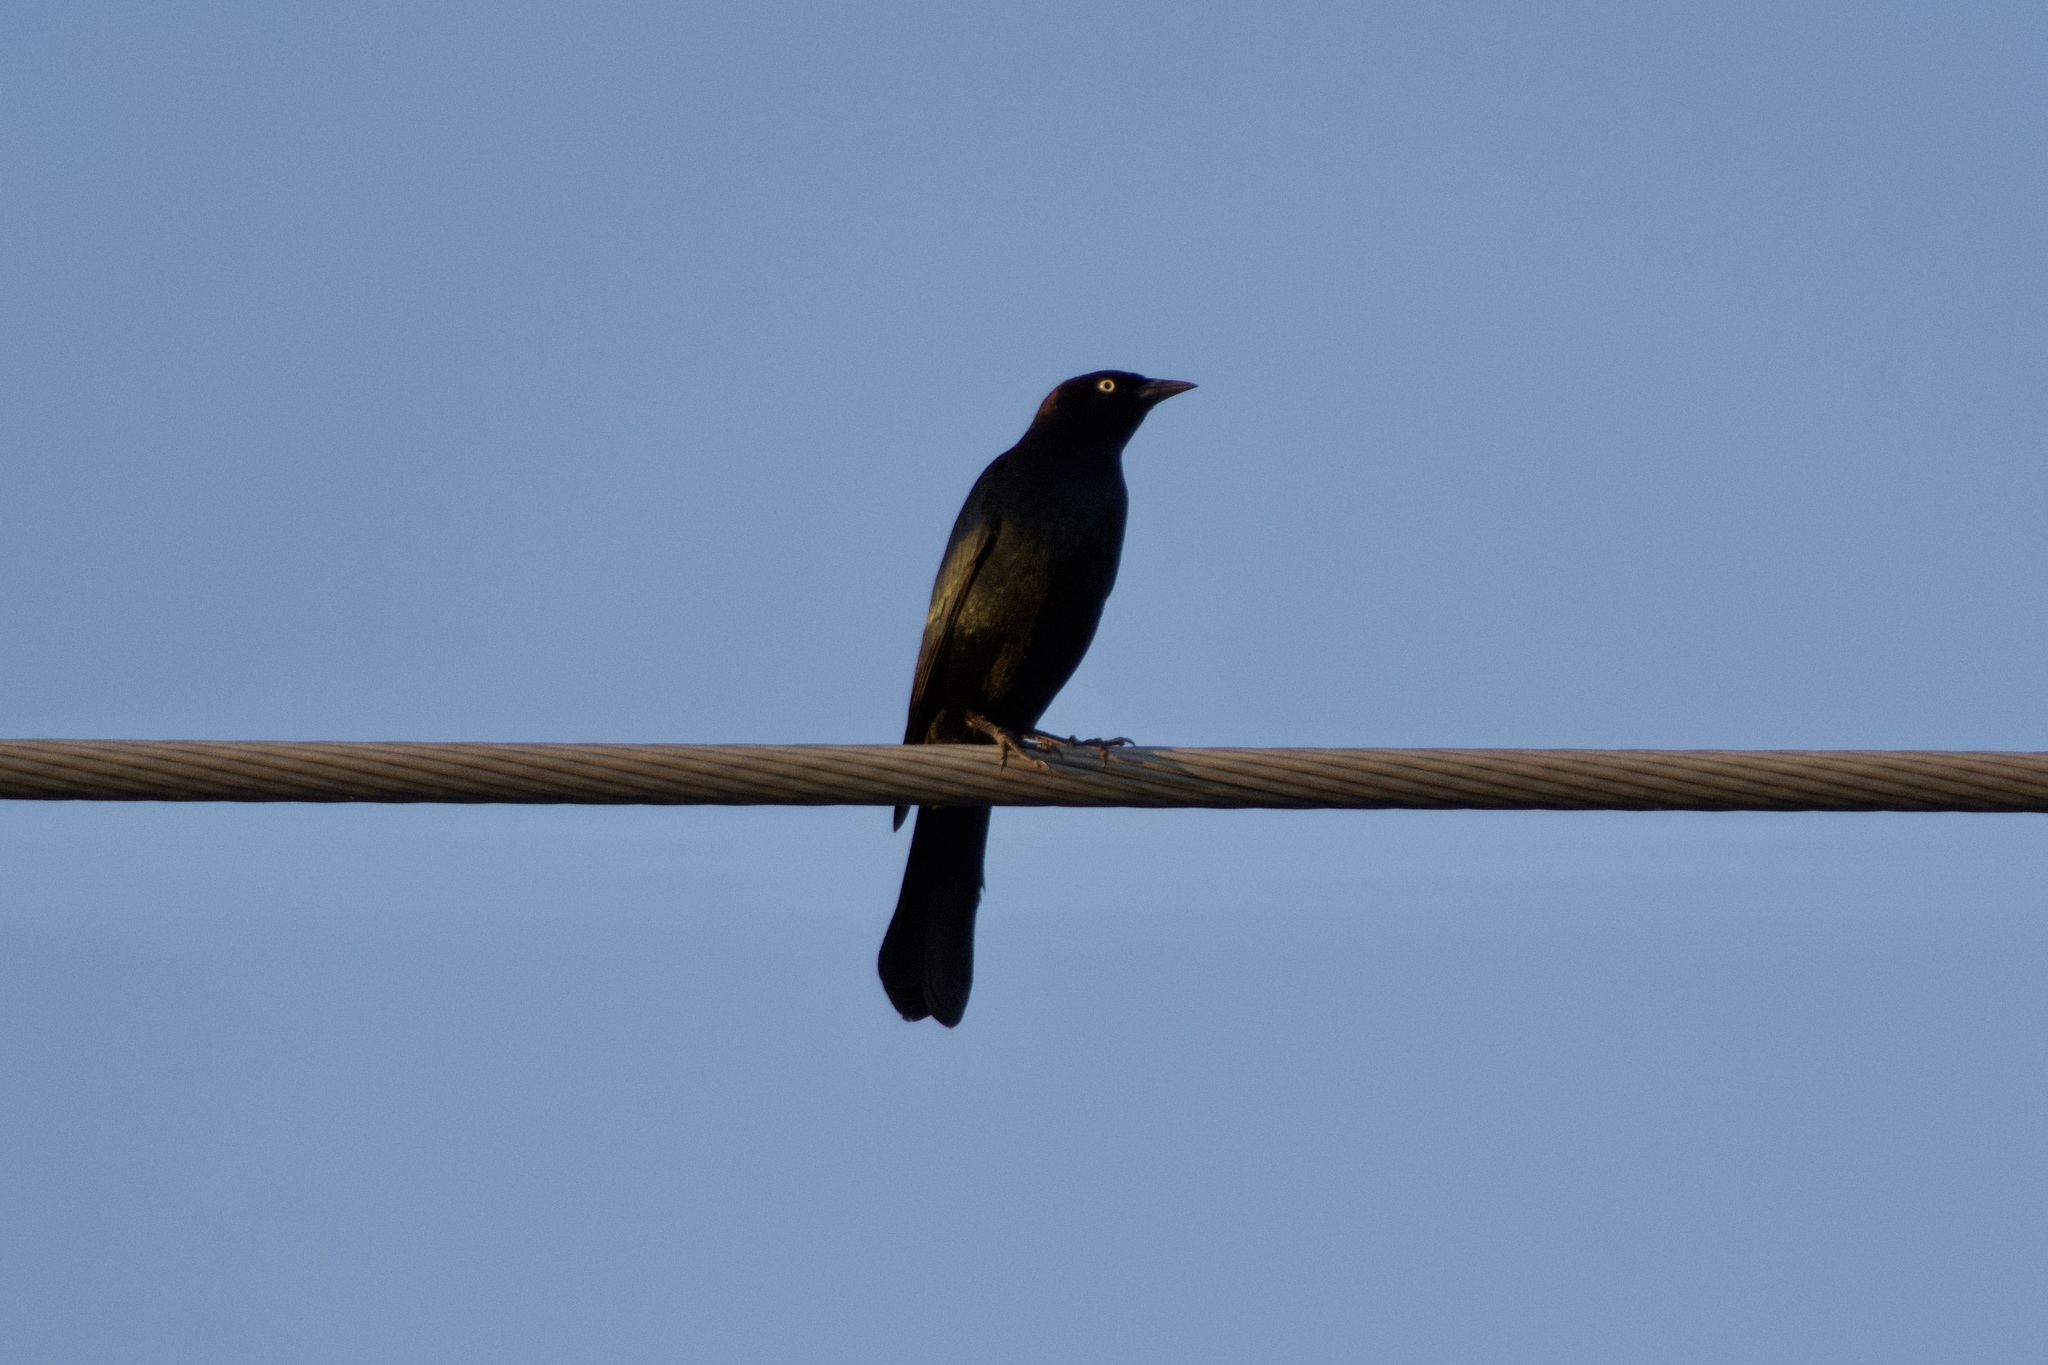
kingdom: Animalia
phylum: Chordata
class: Aves
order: Passeriformes
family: Icteridae
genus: Euphagus
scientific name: Euphagus cyanocephalus
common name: Brewer's blackbird
